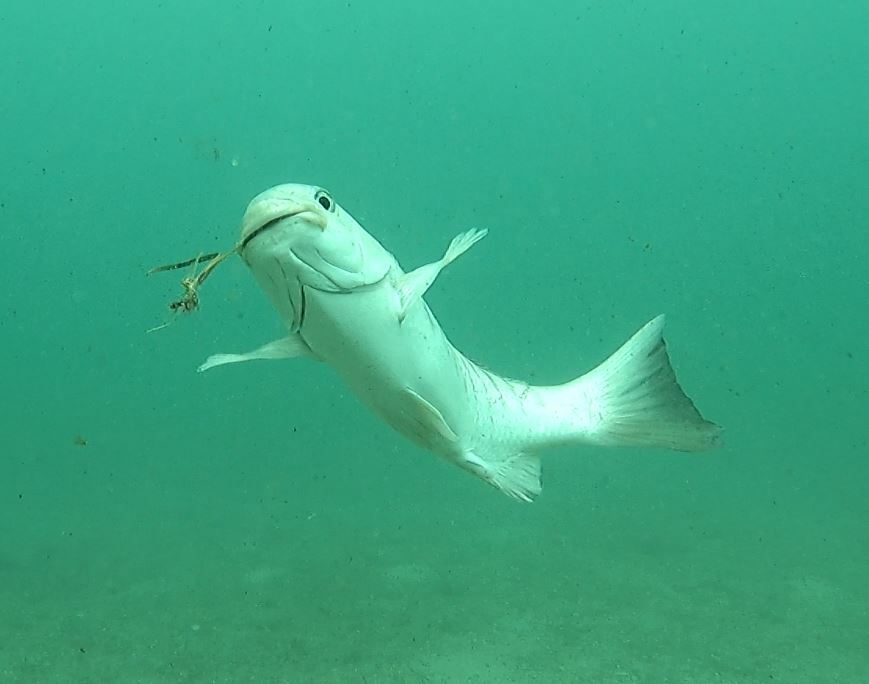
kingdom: Animalia
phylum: Chordata
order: Perciformes
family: Kyphosidae
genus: Girella
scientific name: Girella tricuspidata
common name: Parore
